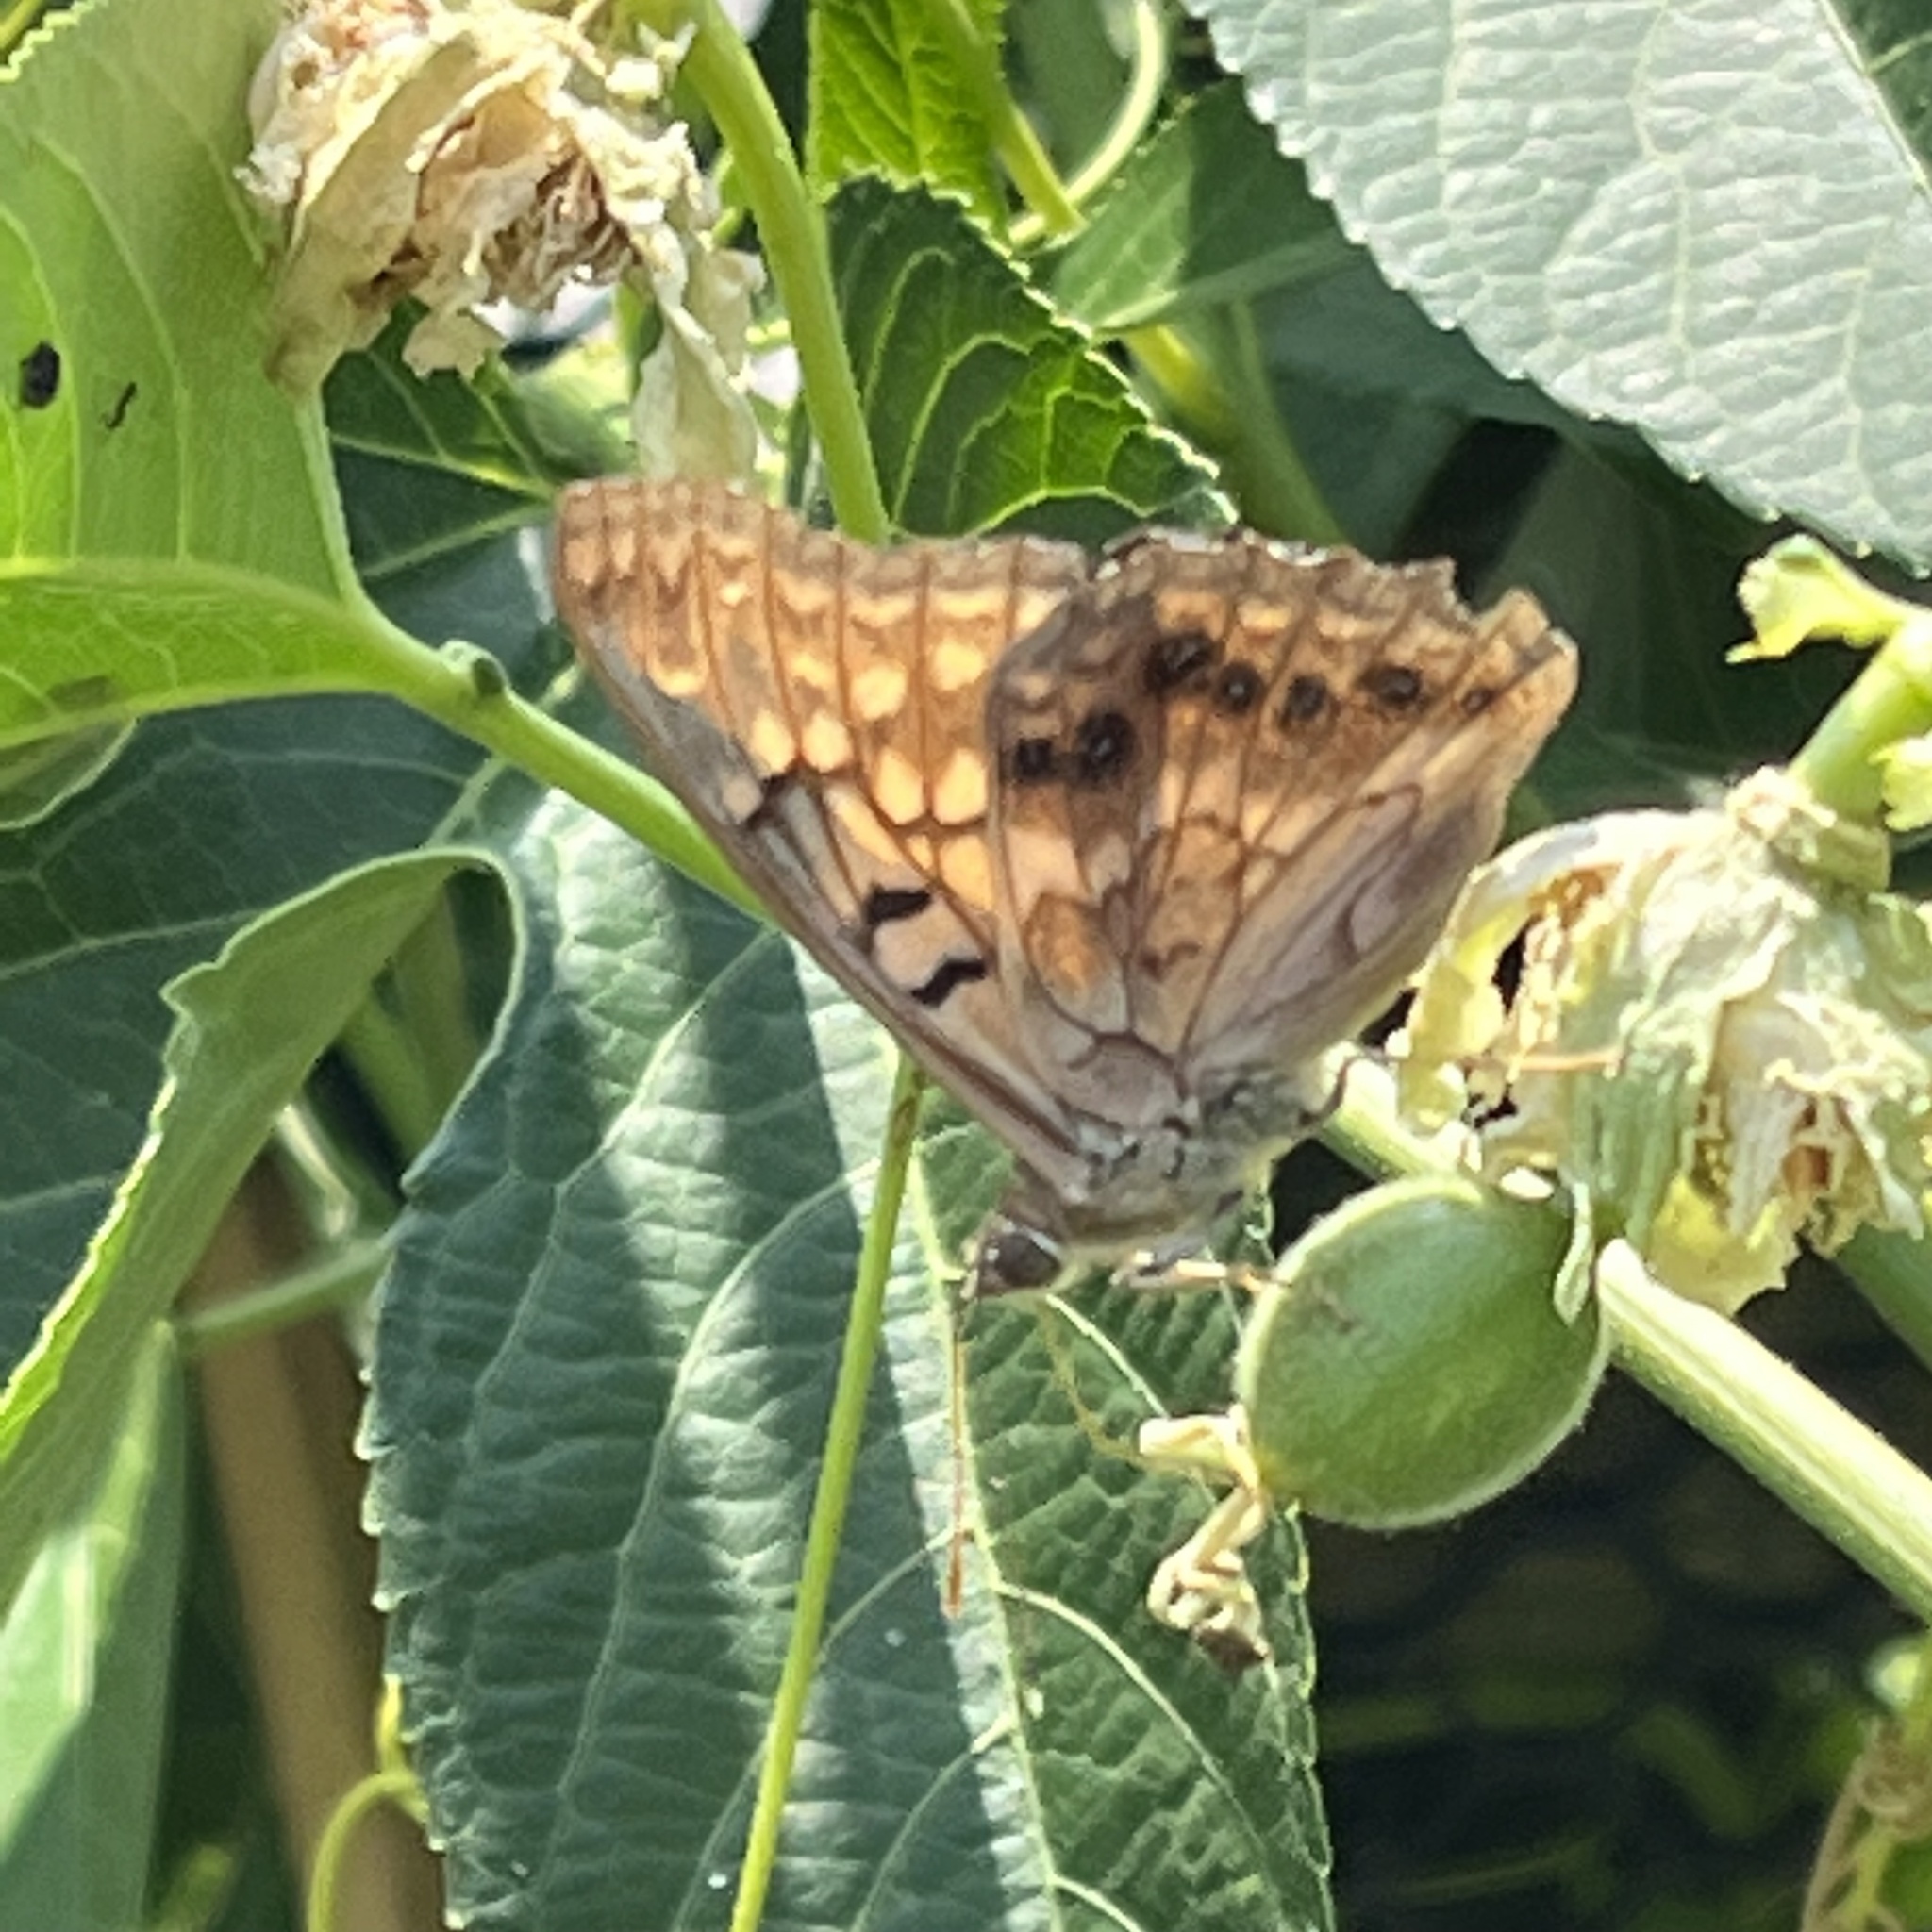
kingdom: Animalia
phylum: Arthropoda
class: Insecta
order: Lepidoptera
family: Nymphalidae
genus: Asterocampa
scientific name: Asterocampa clyton
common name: Tawny emperor
